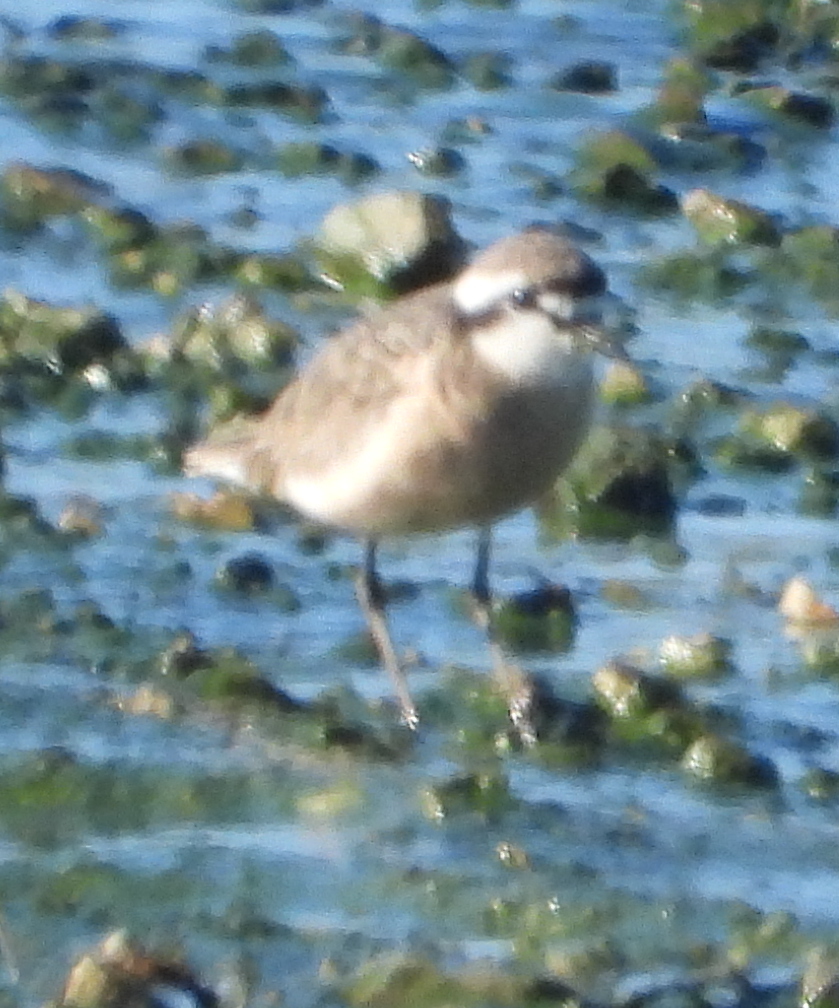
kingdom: Animalia
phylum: Chordata
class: Aves
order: Charadriiformes
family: Charadriidae
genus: Anarhynchus
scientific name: Anarhynchus
